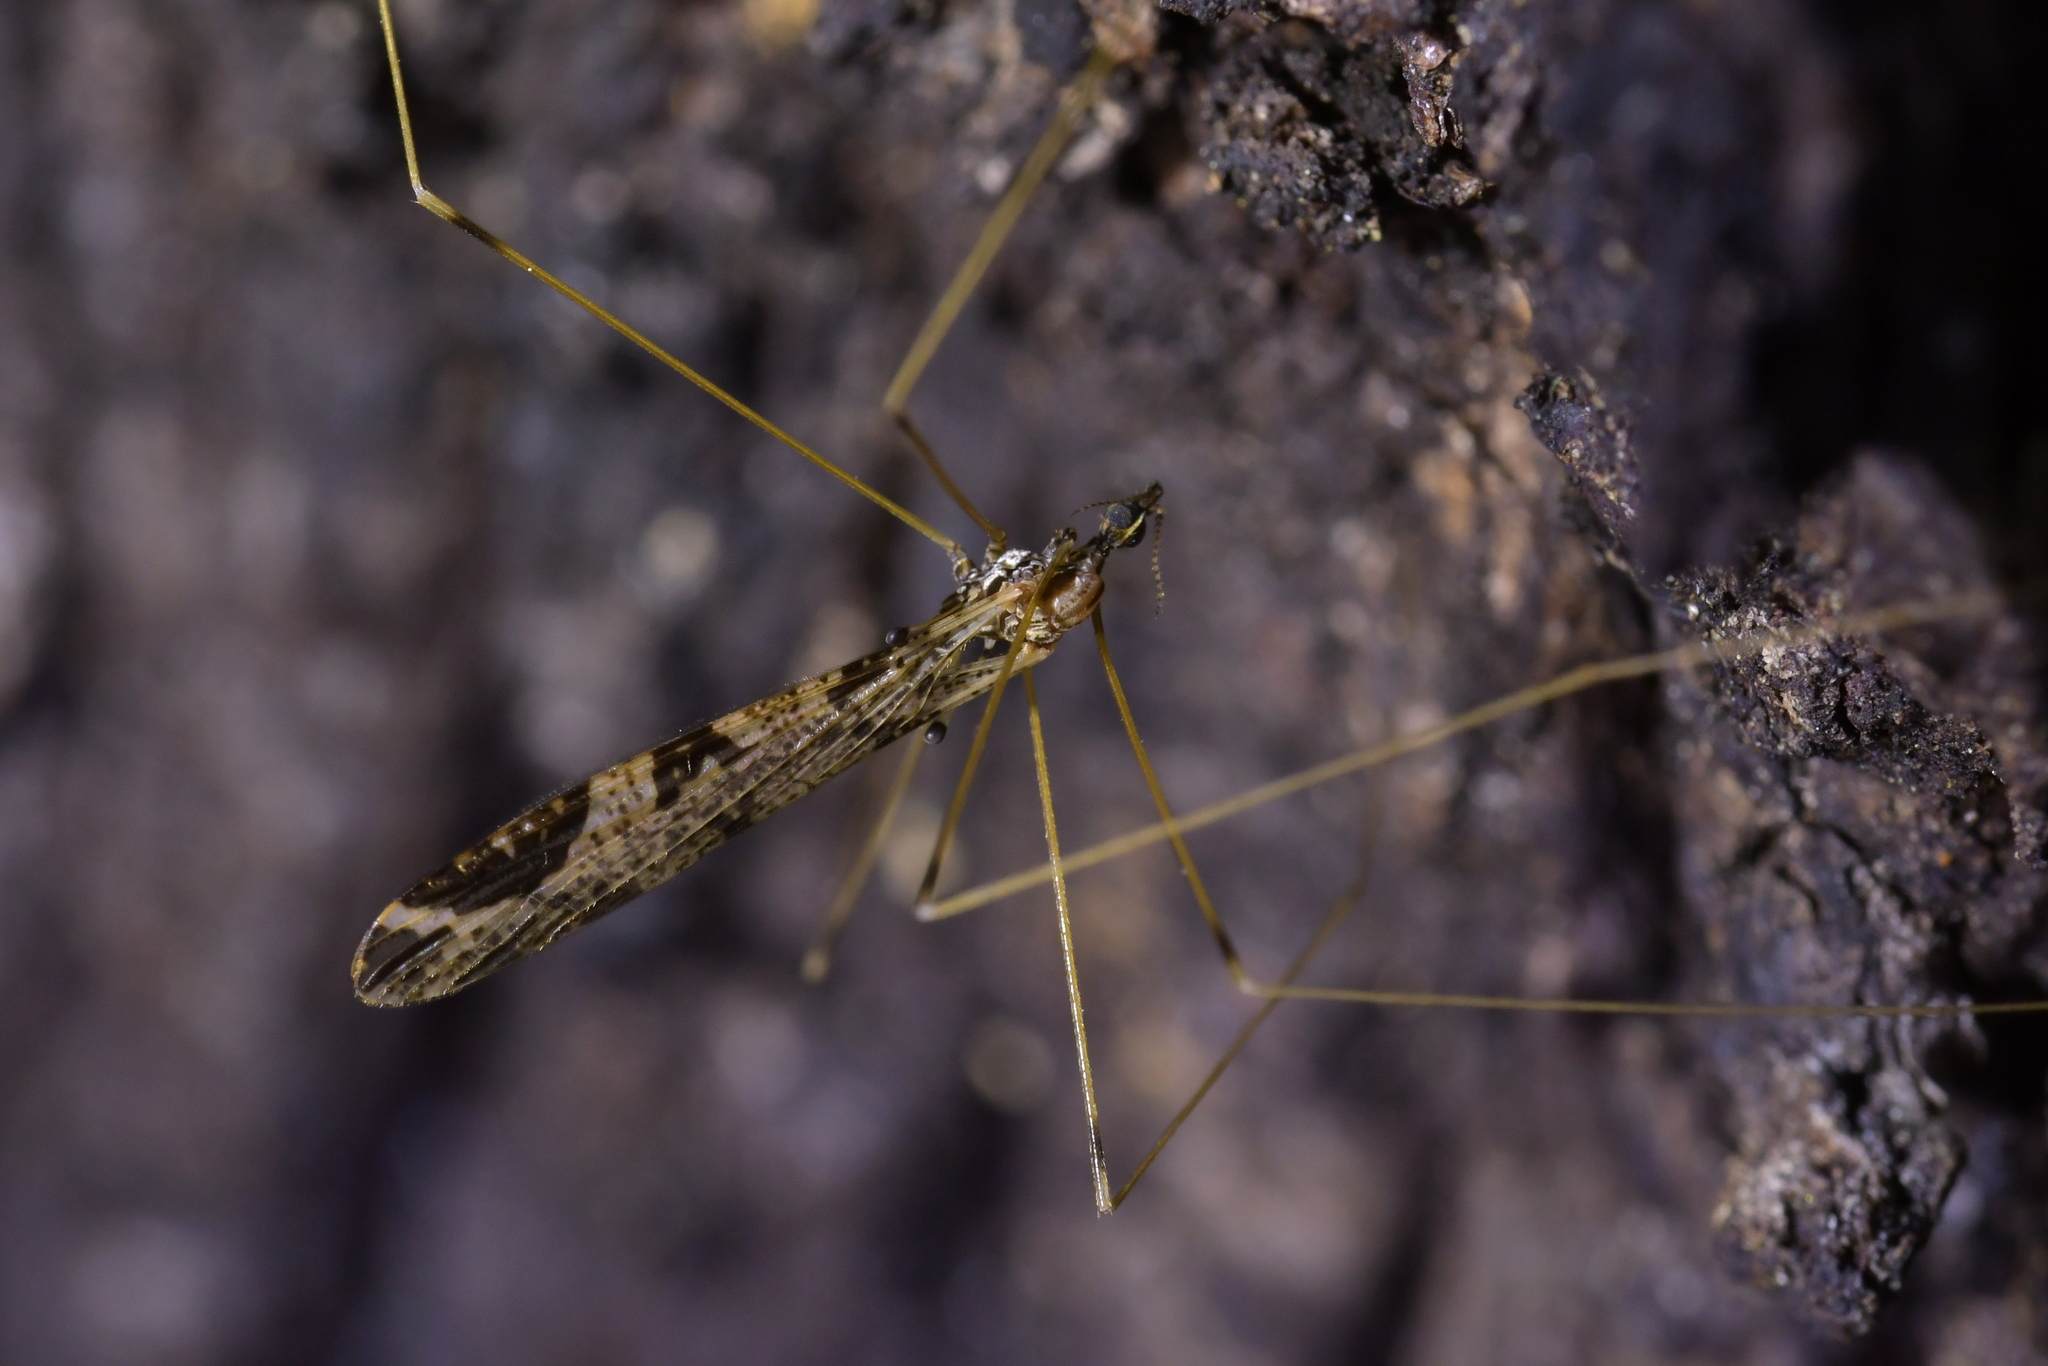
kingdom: Animalia
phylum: Arthropoda
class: Insecta
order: Diptera
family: Limoniidae
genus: Discobola
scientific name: Discobola striata
